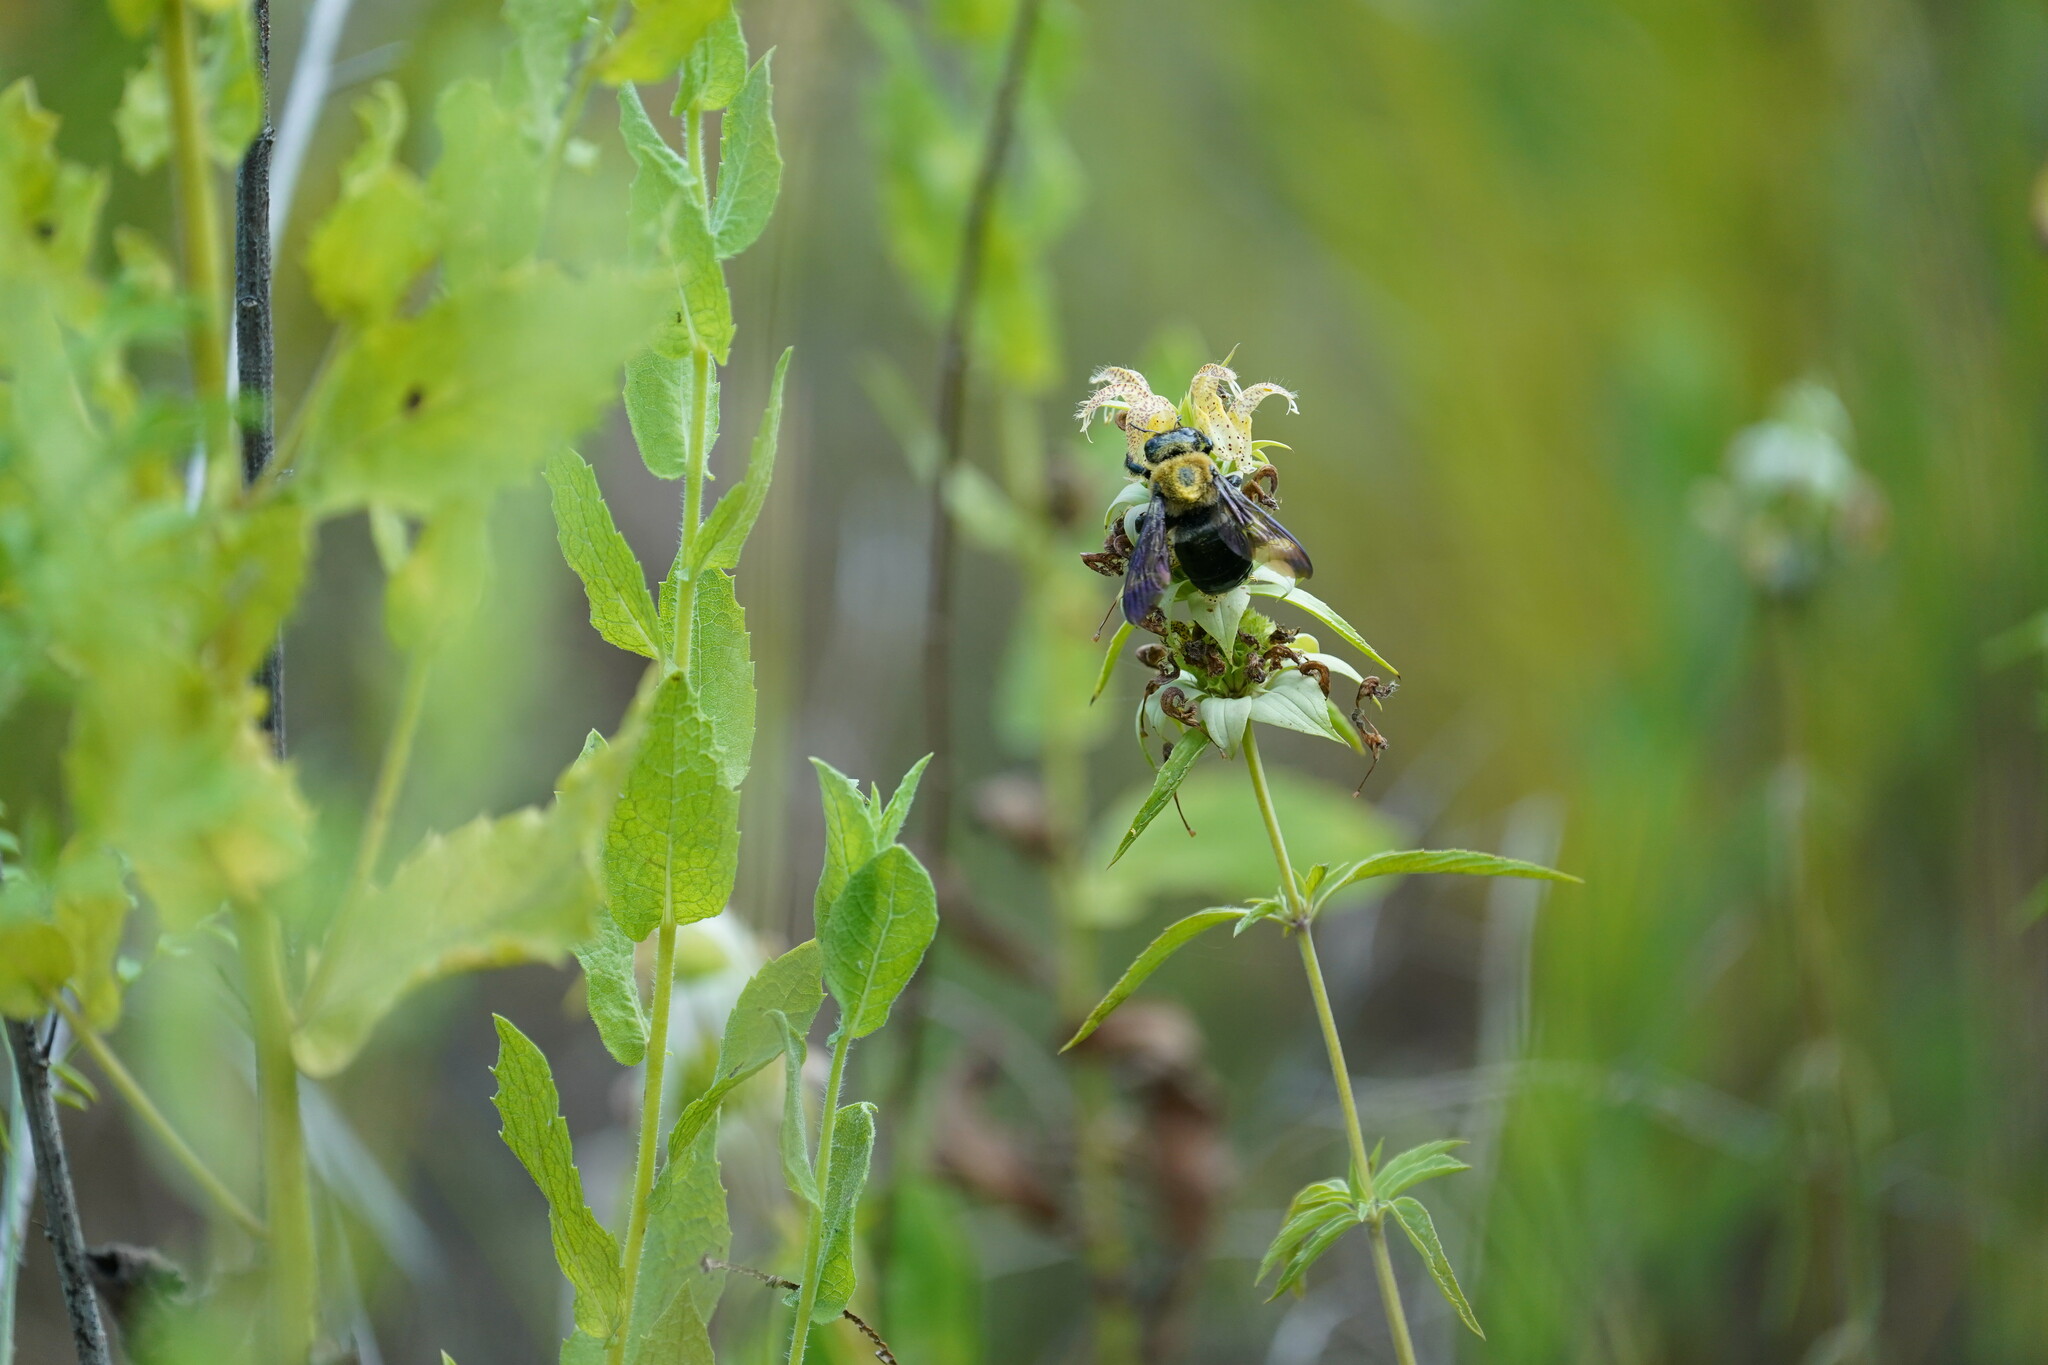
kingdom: Animalia
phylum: Arthropoda
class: Insecta
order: Hymenoptera
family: Apidae
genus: Xylocopa
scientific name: Xylocopa virginica
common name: Carpenter bee
